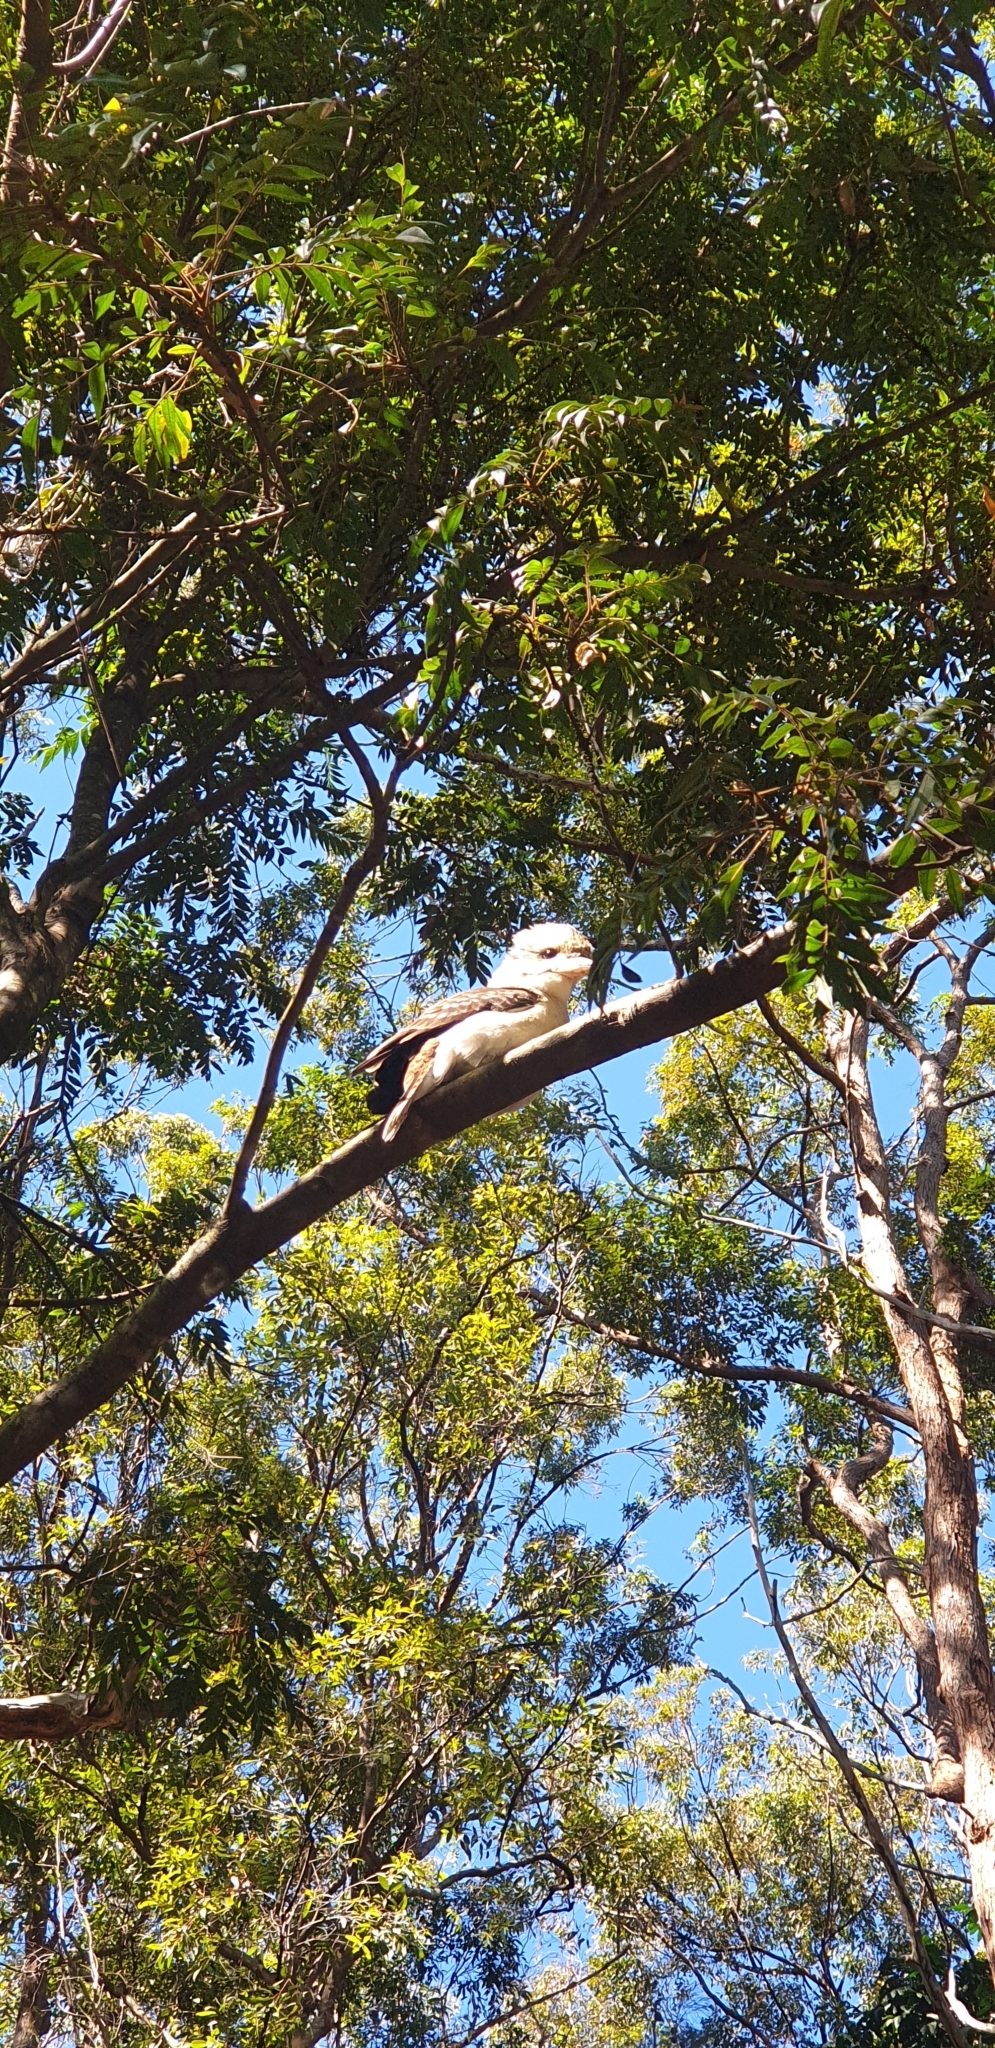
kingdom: Animalia
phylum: Chordata
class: Aves
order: Coraciiformes
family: Alcedinidae
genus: Dacelo
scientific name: Dacelo novaeguineae
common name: Laughing kookaburra
